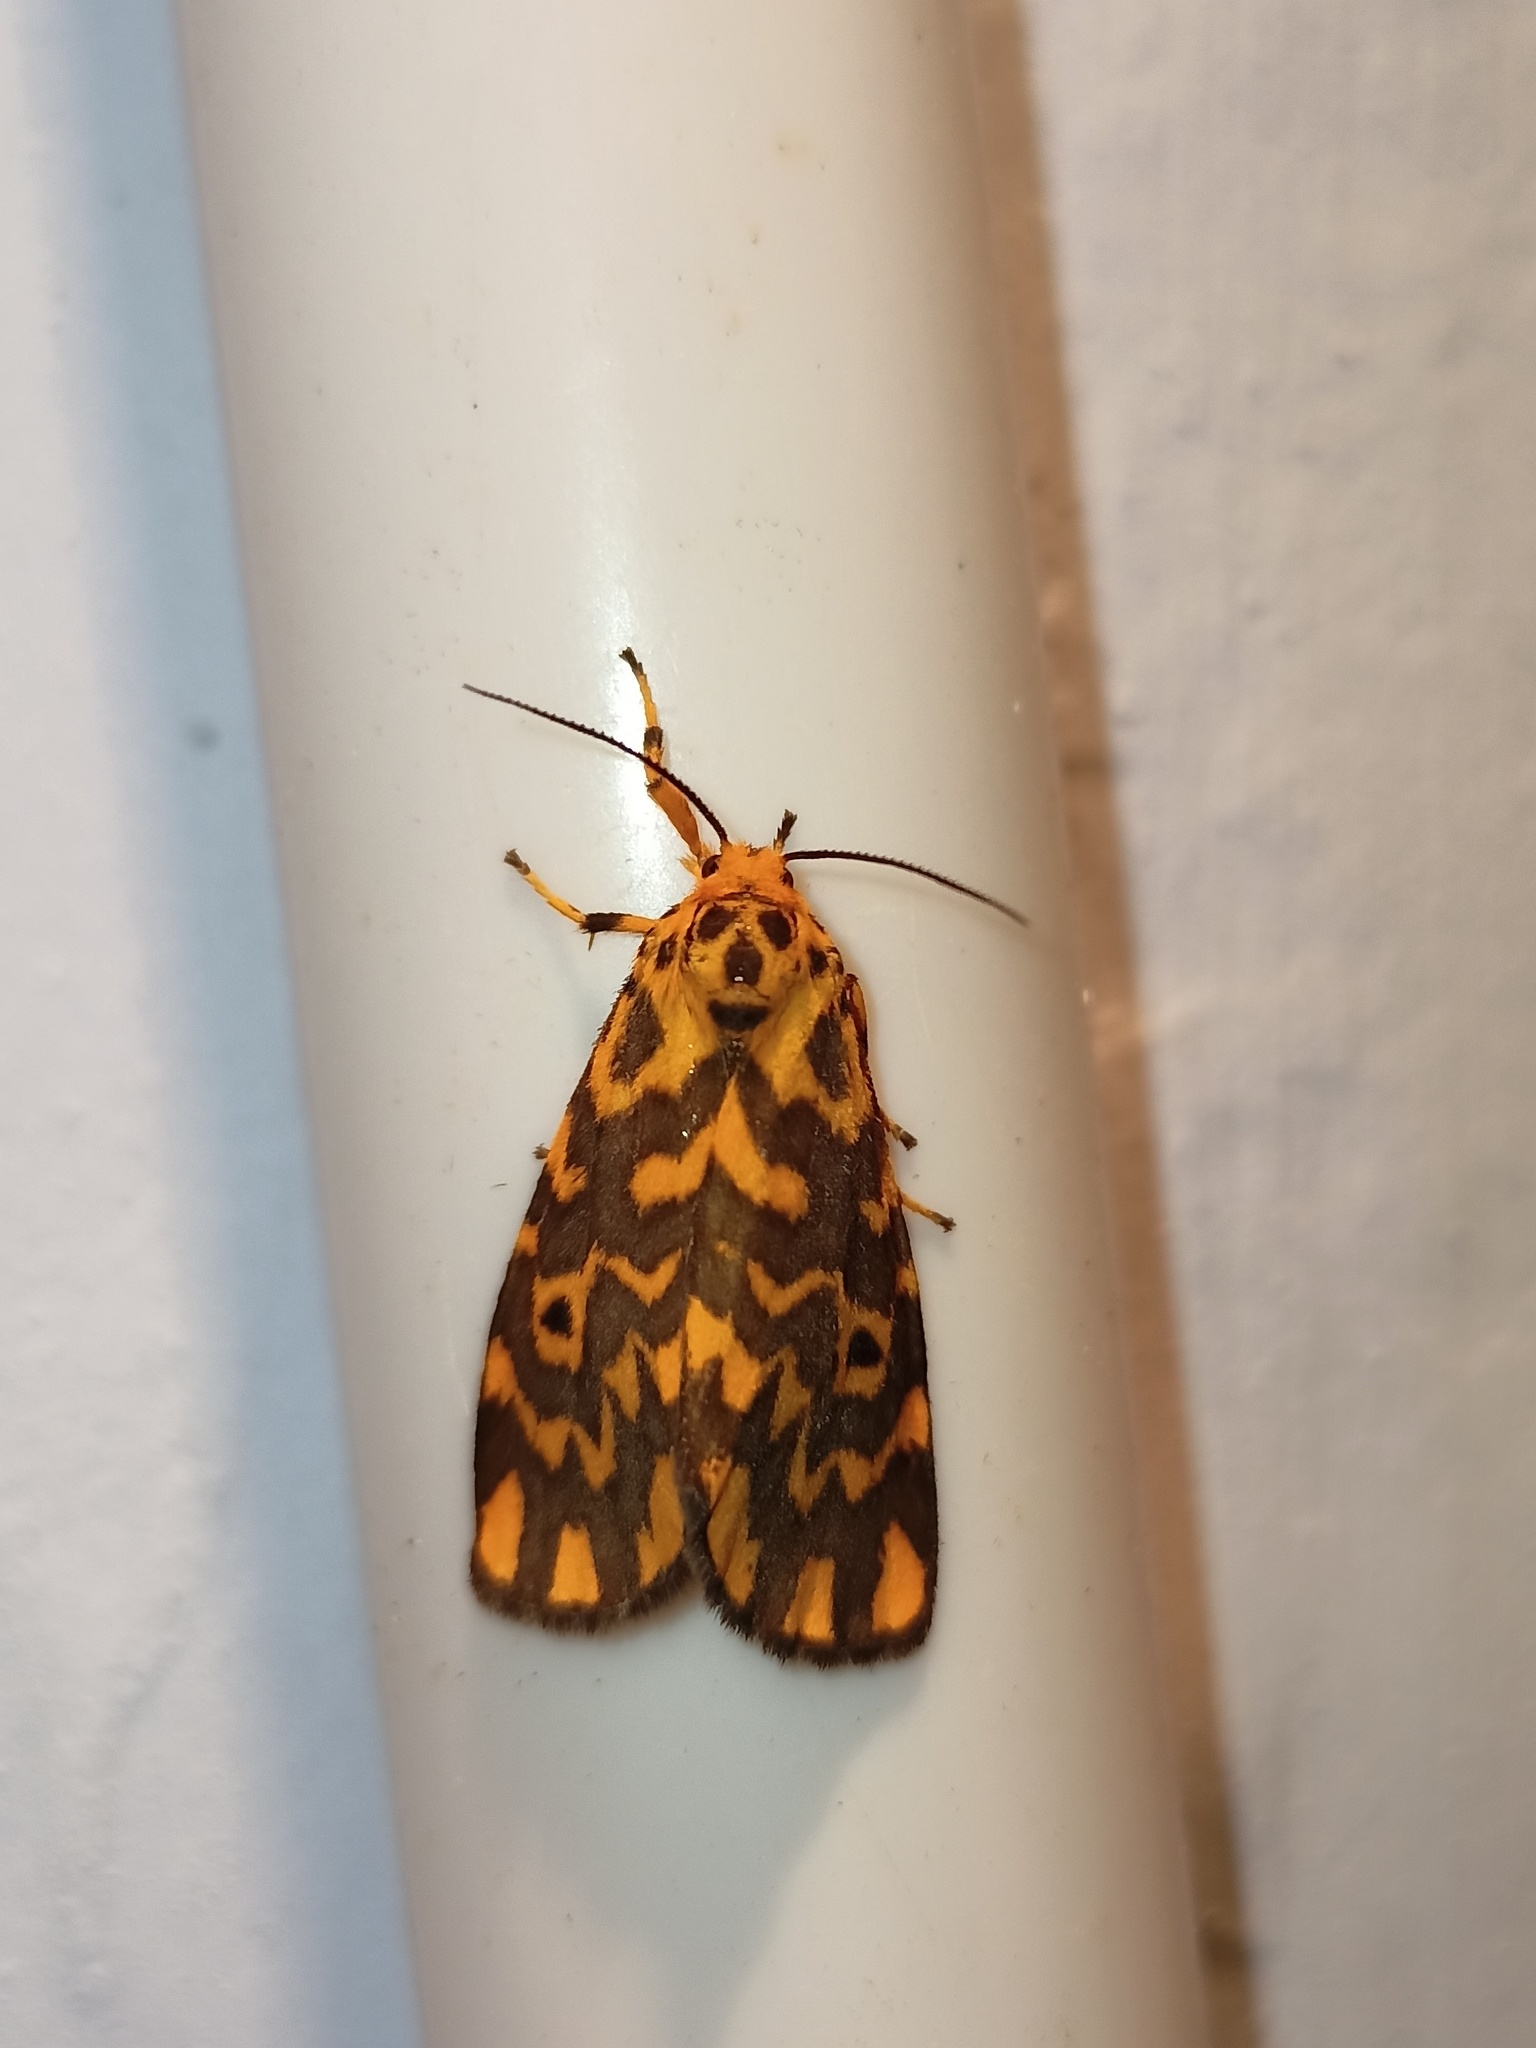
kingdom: Animalia
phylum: Arthropoda
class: Insecta
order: Lepidoptera
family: Erebidae
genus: Nepita
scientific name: Nepita conferta
